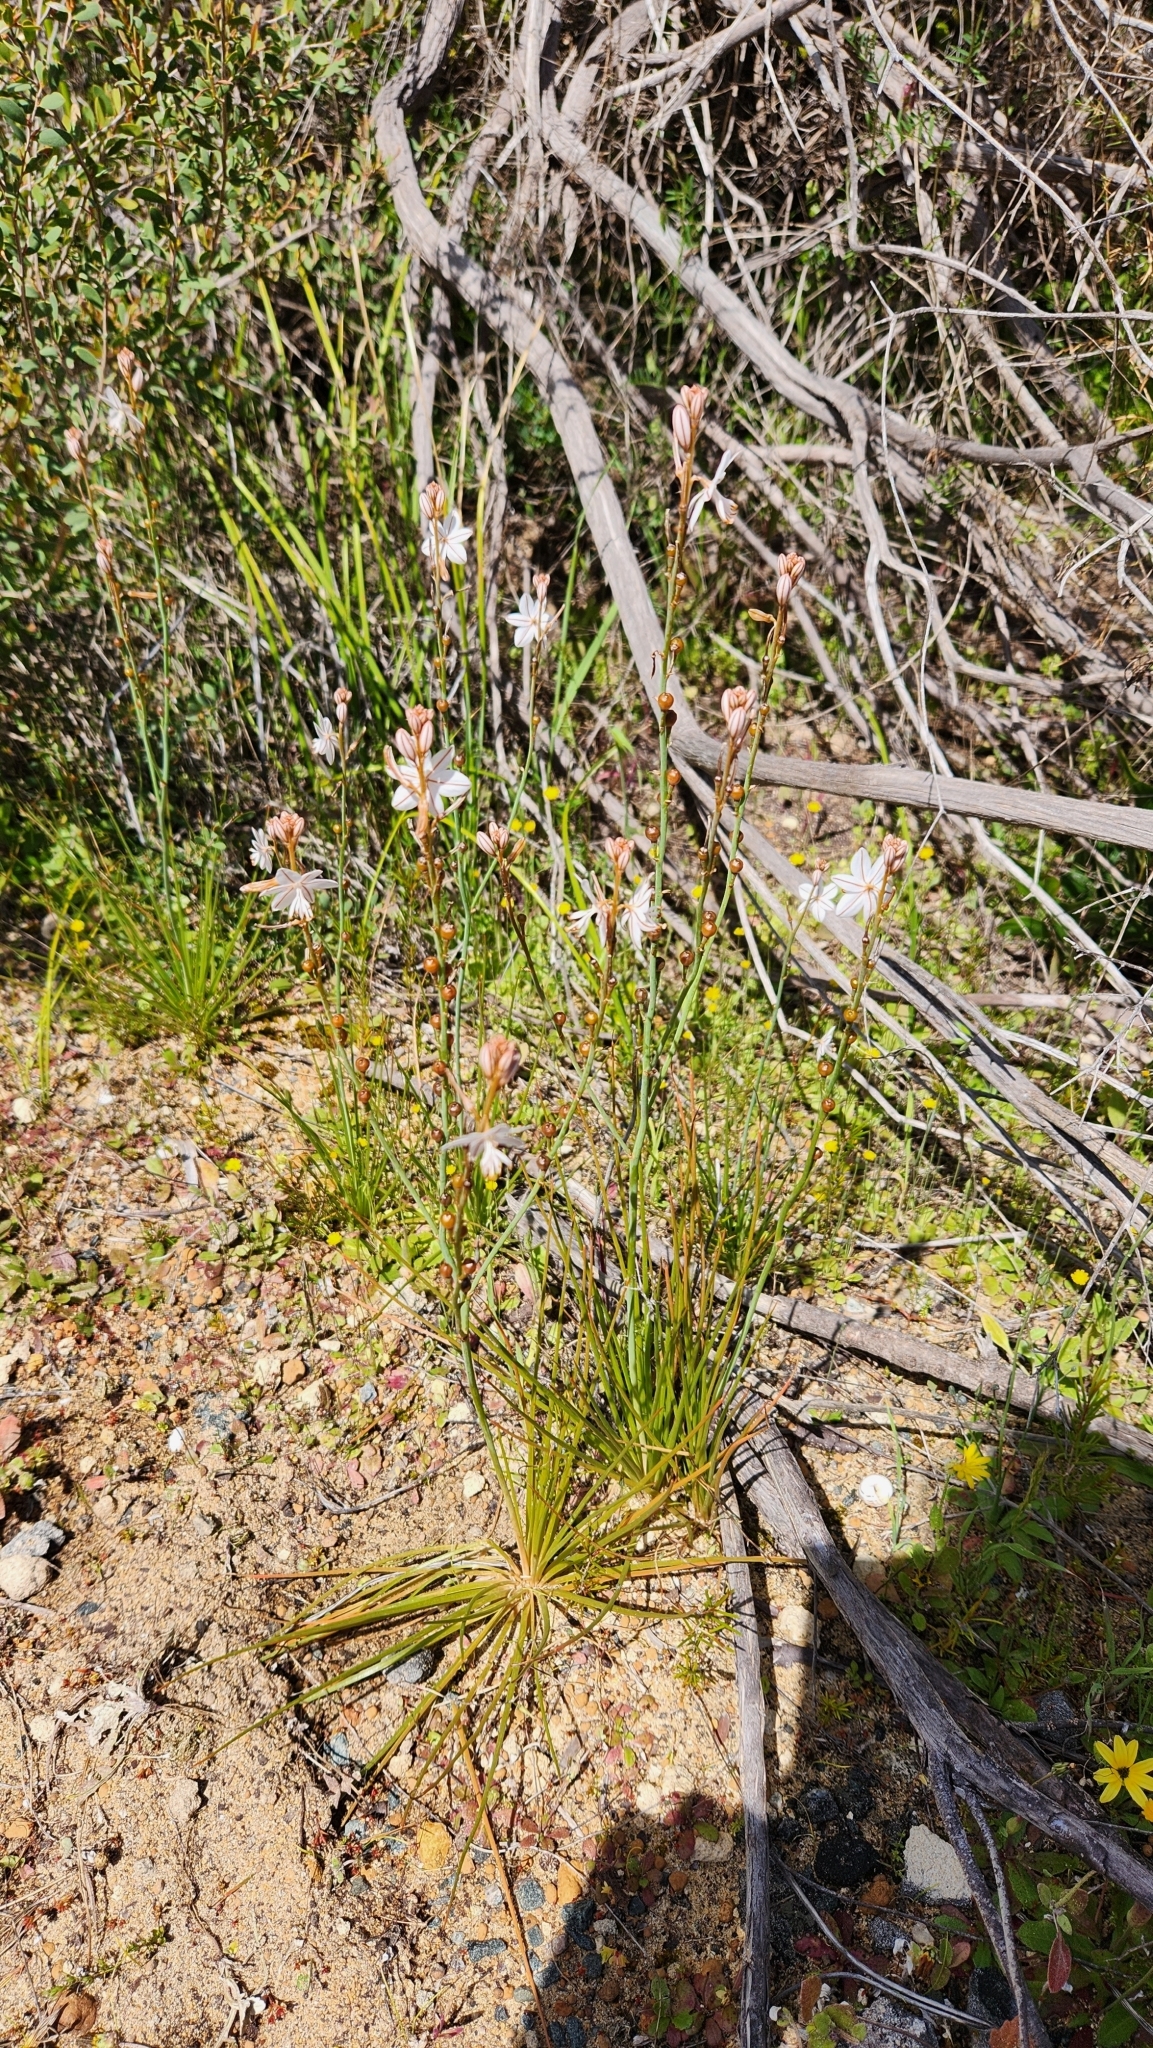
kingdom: Plantae
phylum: Tracheophyta
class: Liliopsida
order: Asparagales
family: Asphodelaceae
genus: Asphodelus
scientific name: Asphodelus fistulosus
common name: Onionweed
